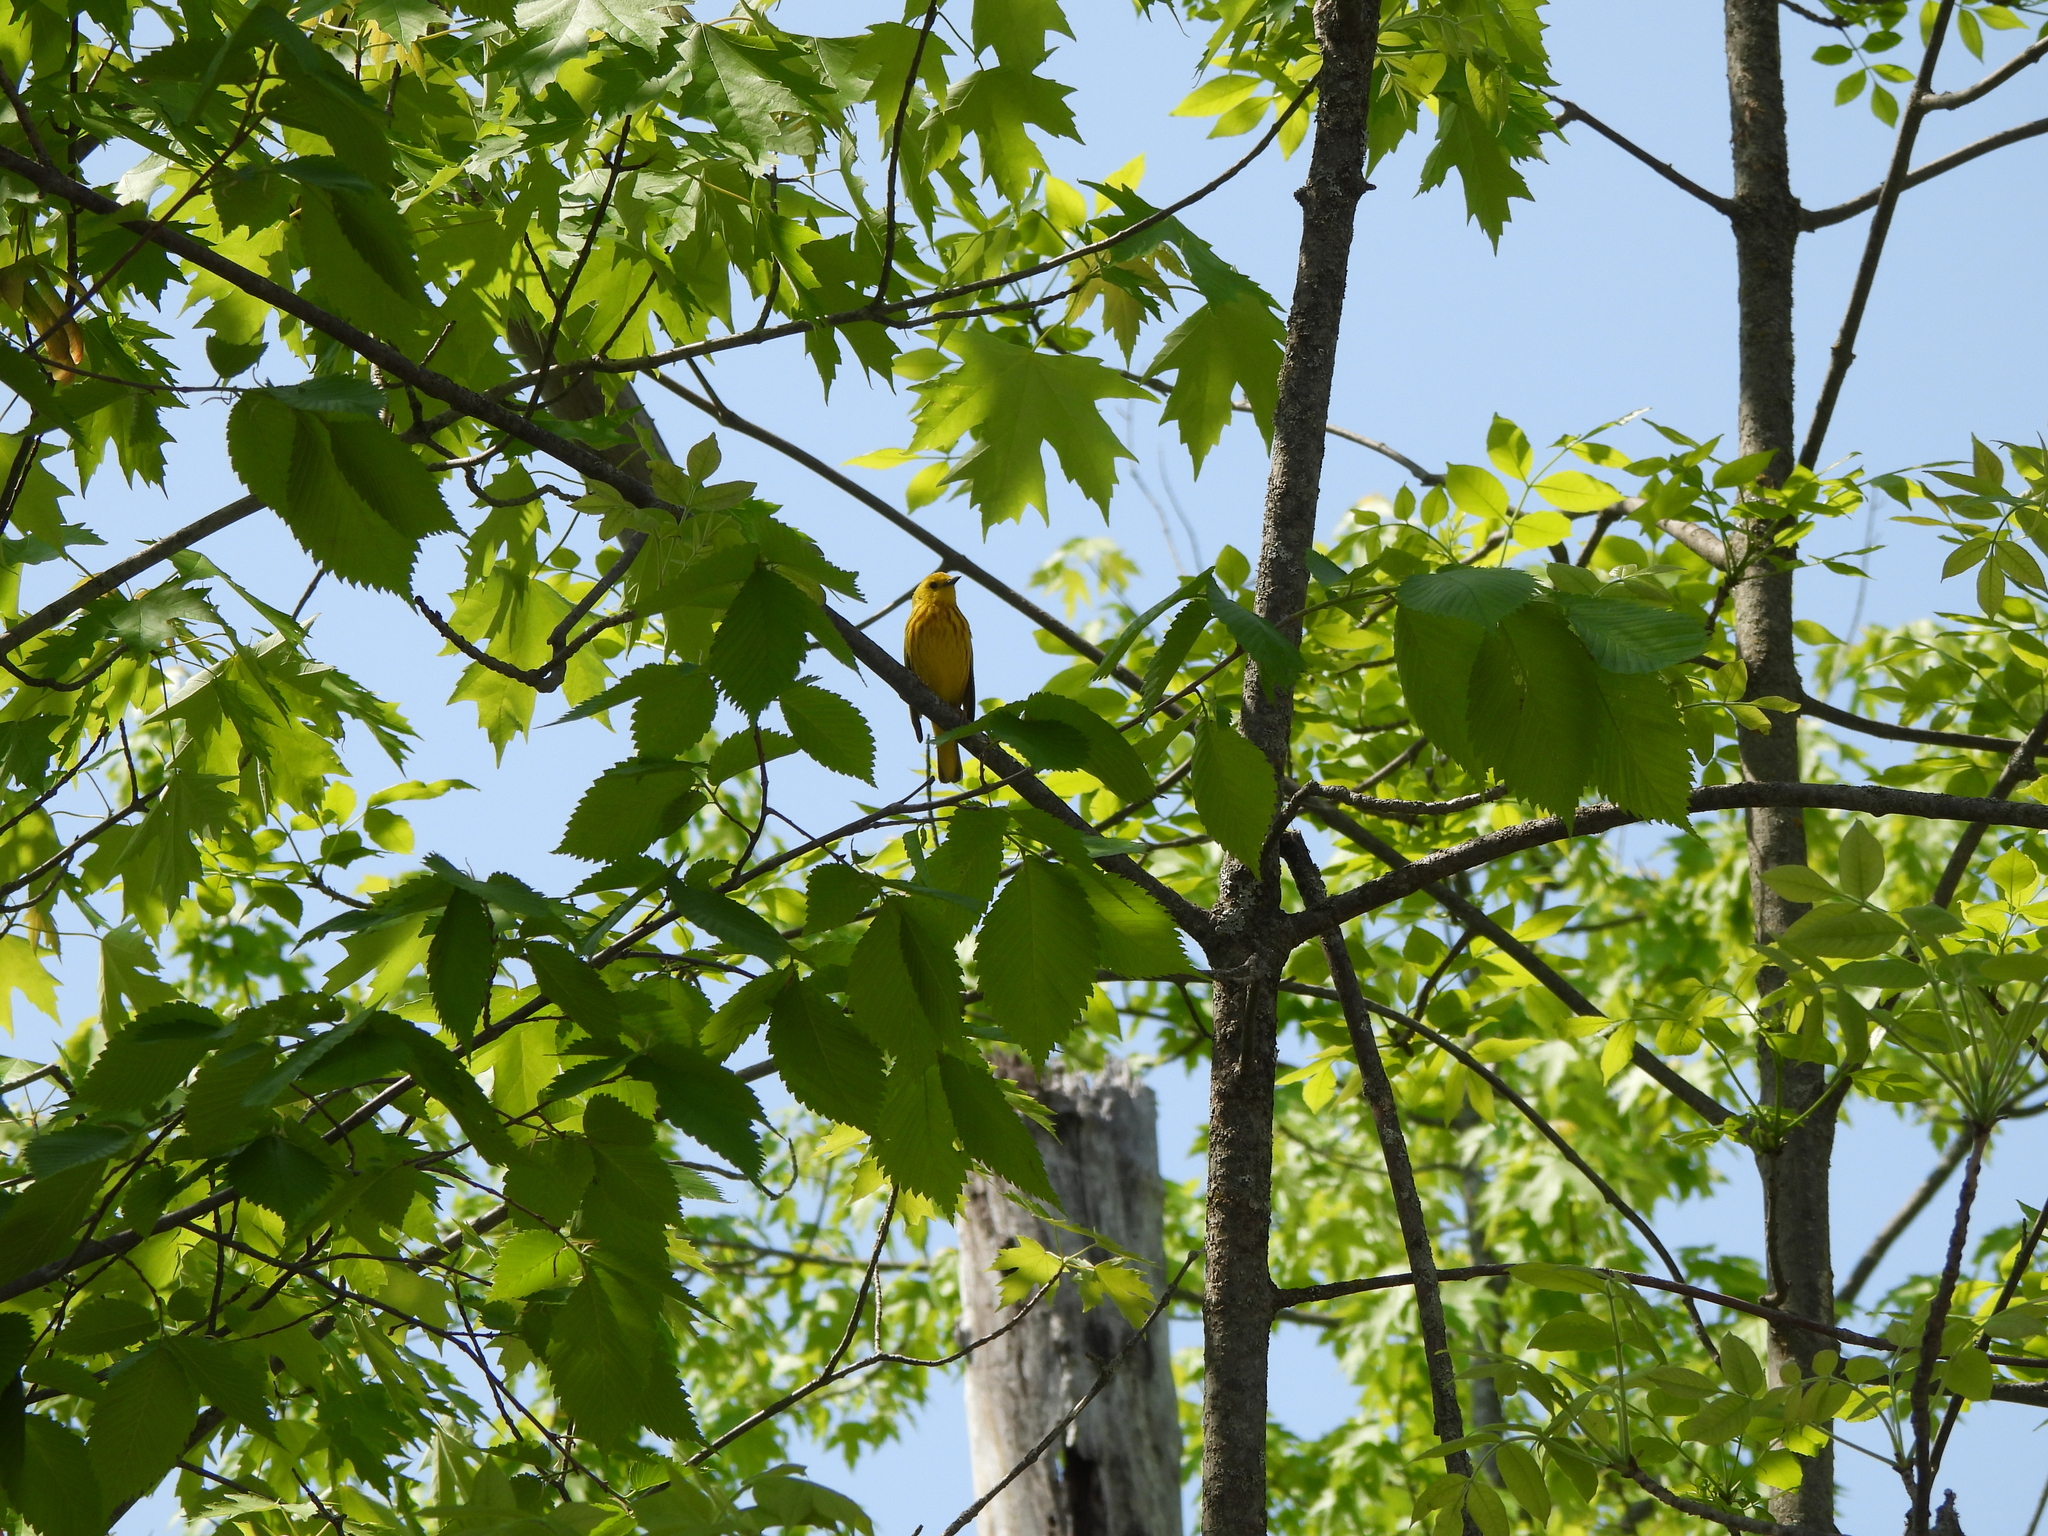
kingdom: Animalia
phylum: Chordata
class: Aves
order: Passeriformes
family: Parulidae
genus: Setophaga
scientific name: Setophaga petechia
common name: Yellow warbler
